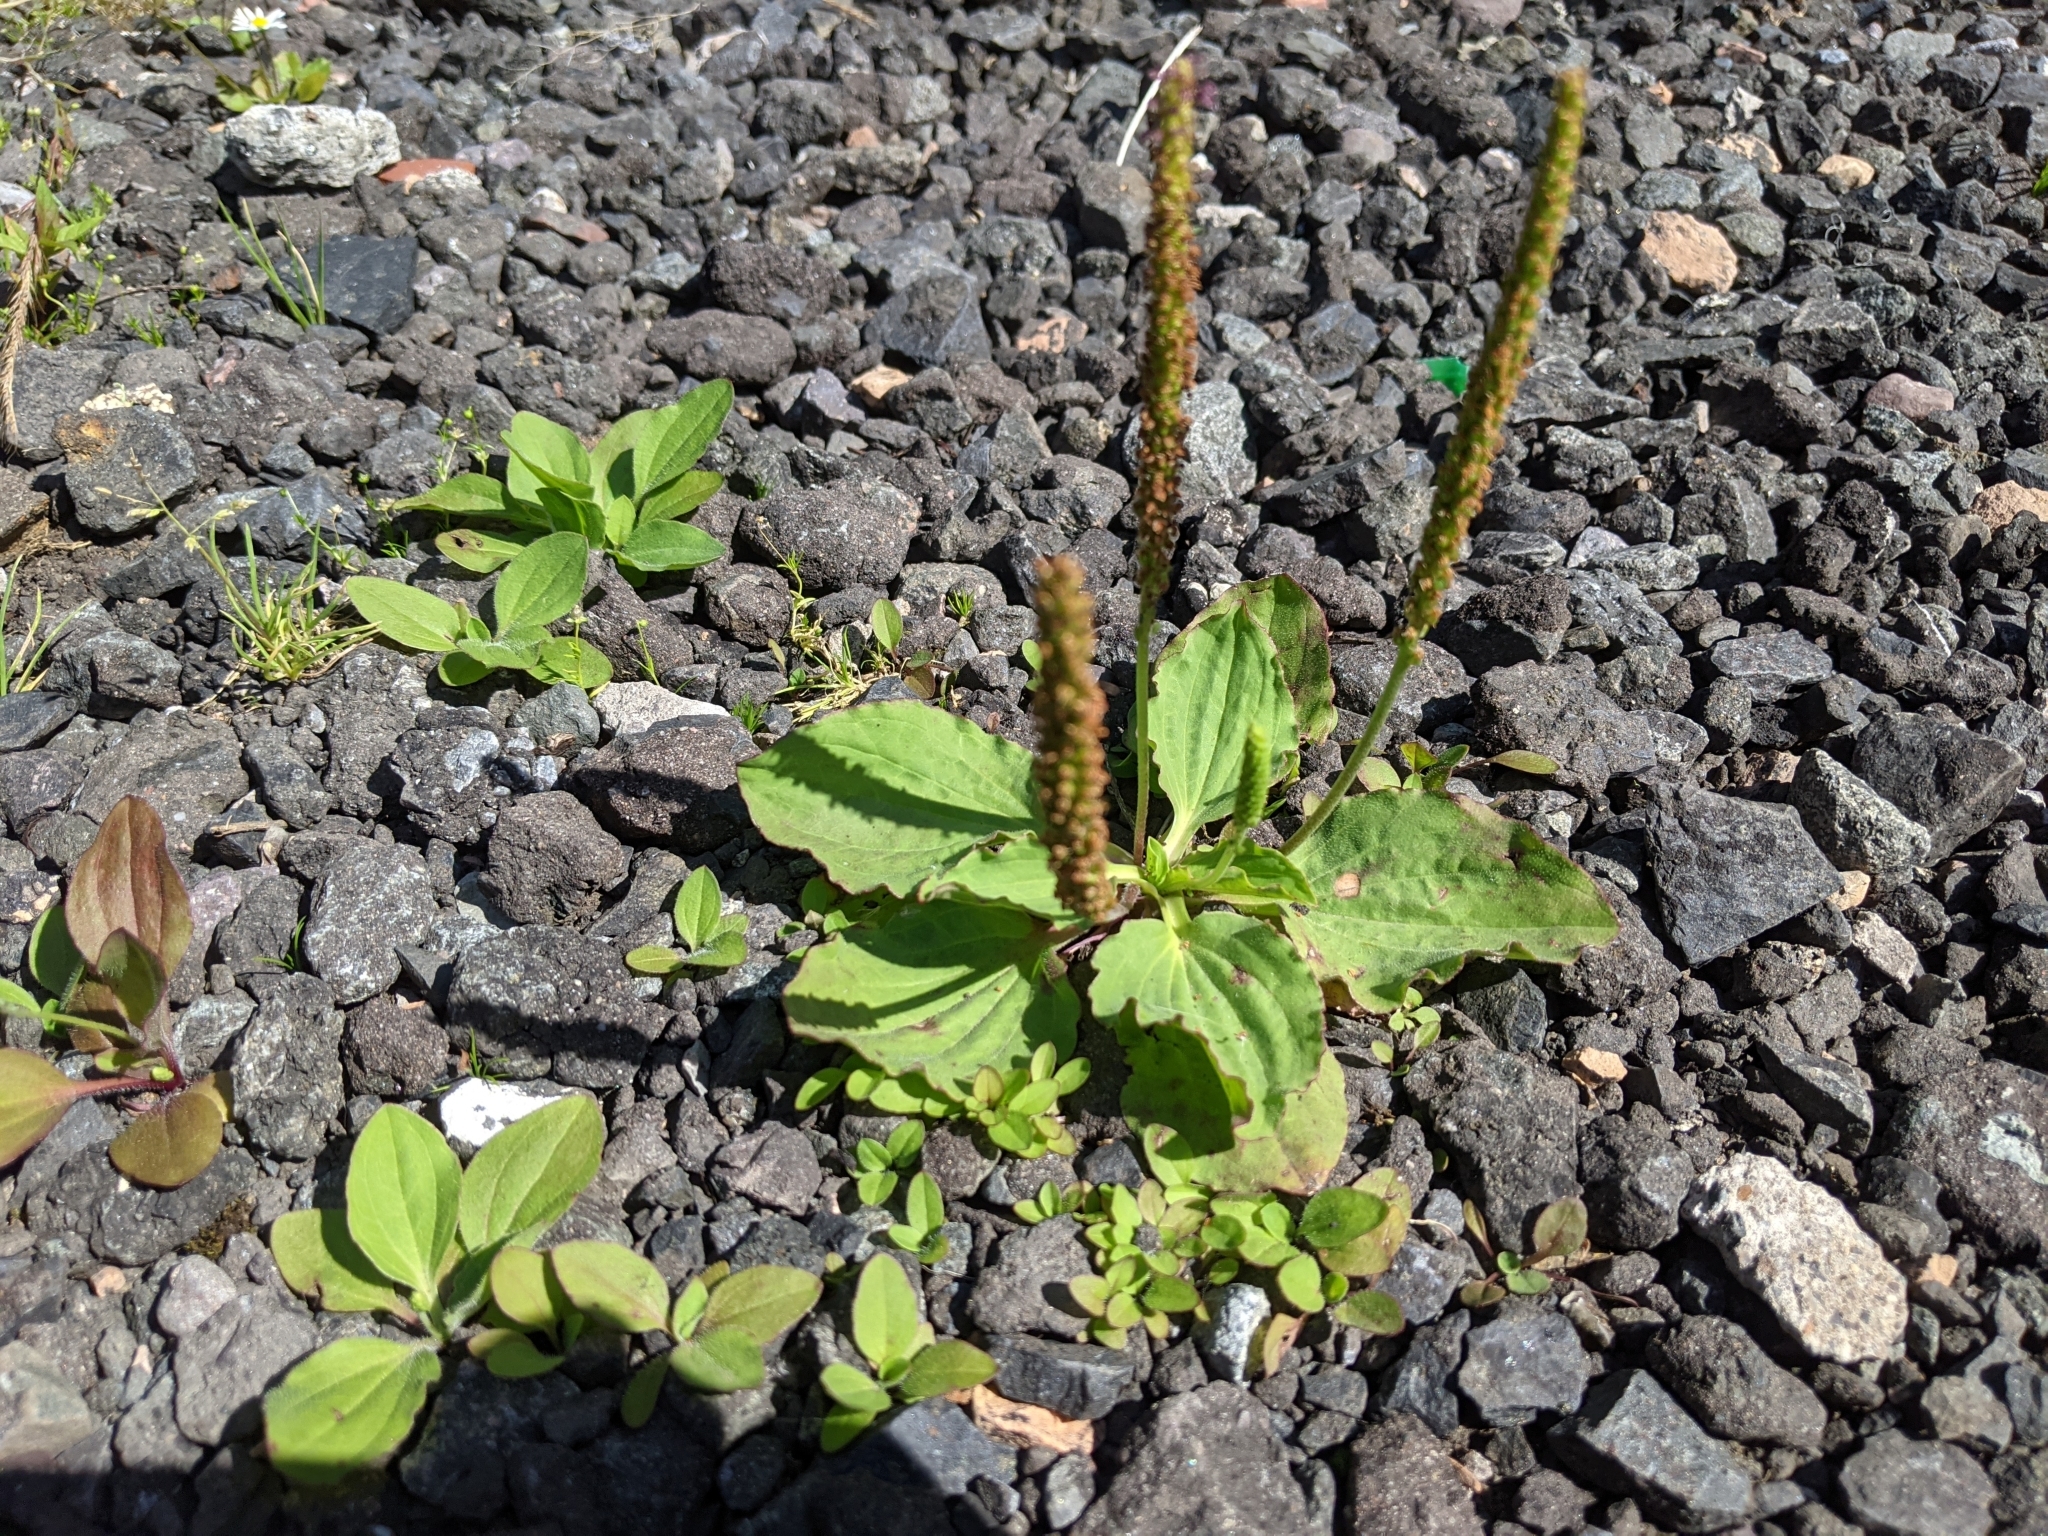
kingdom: Plantae
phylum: Tracheophyta
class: Magnoliopsida
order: Lamiales
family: Plantaginaceae
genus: Plantago
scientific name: Plantago major
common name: Common plantain
